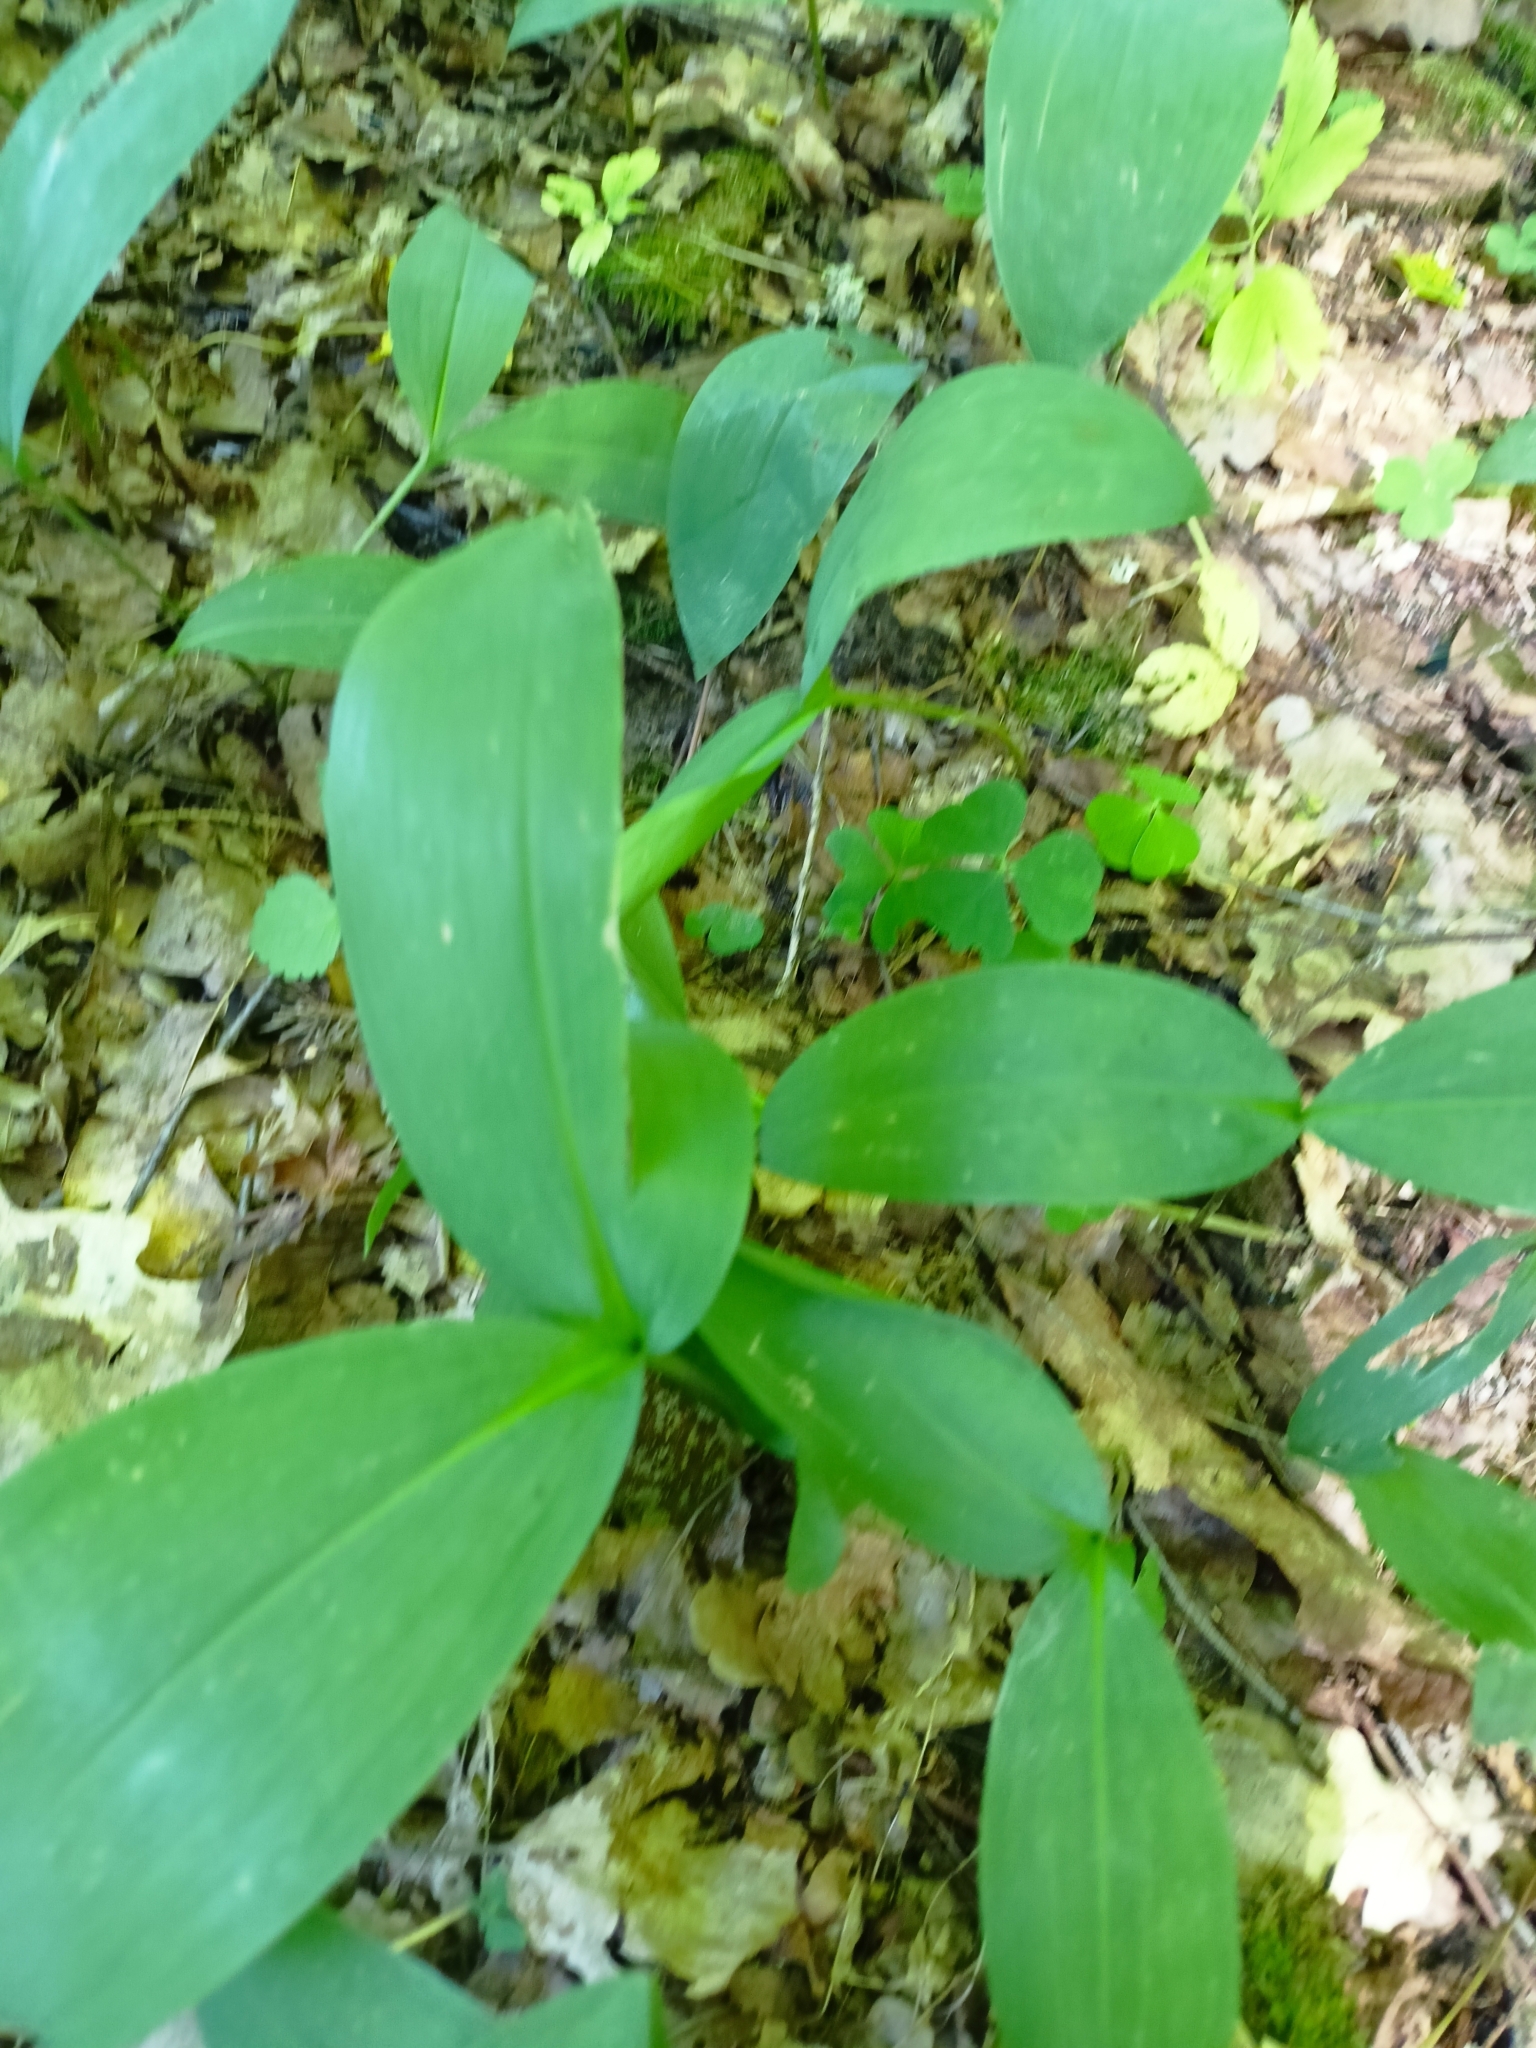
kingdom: Plantae
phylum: Tracheophyta
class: Liliopsida
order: Asparagales
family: Asparagaceae
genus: Convallaria
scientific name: Convallaria majalis
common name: Lily-of-the-valley
